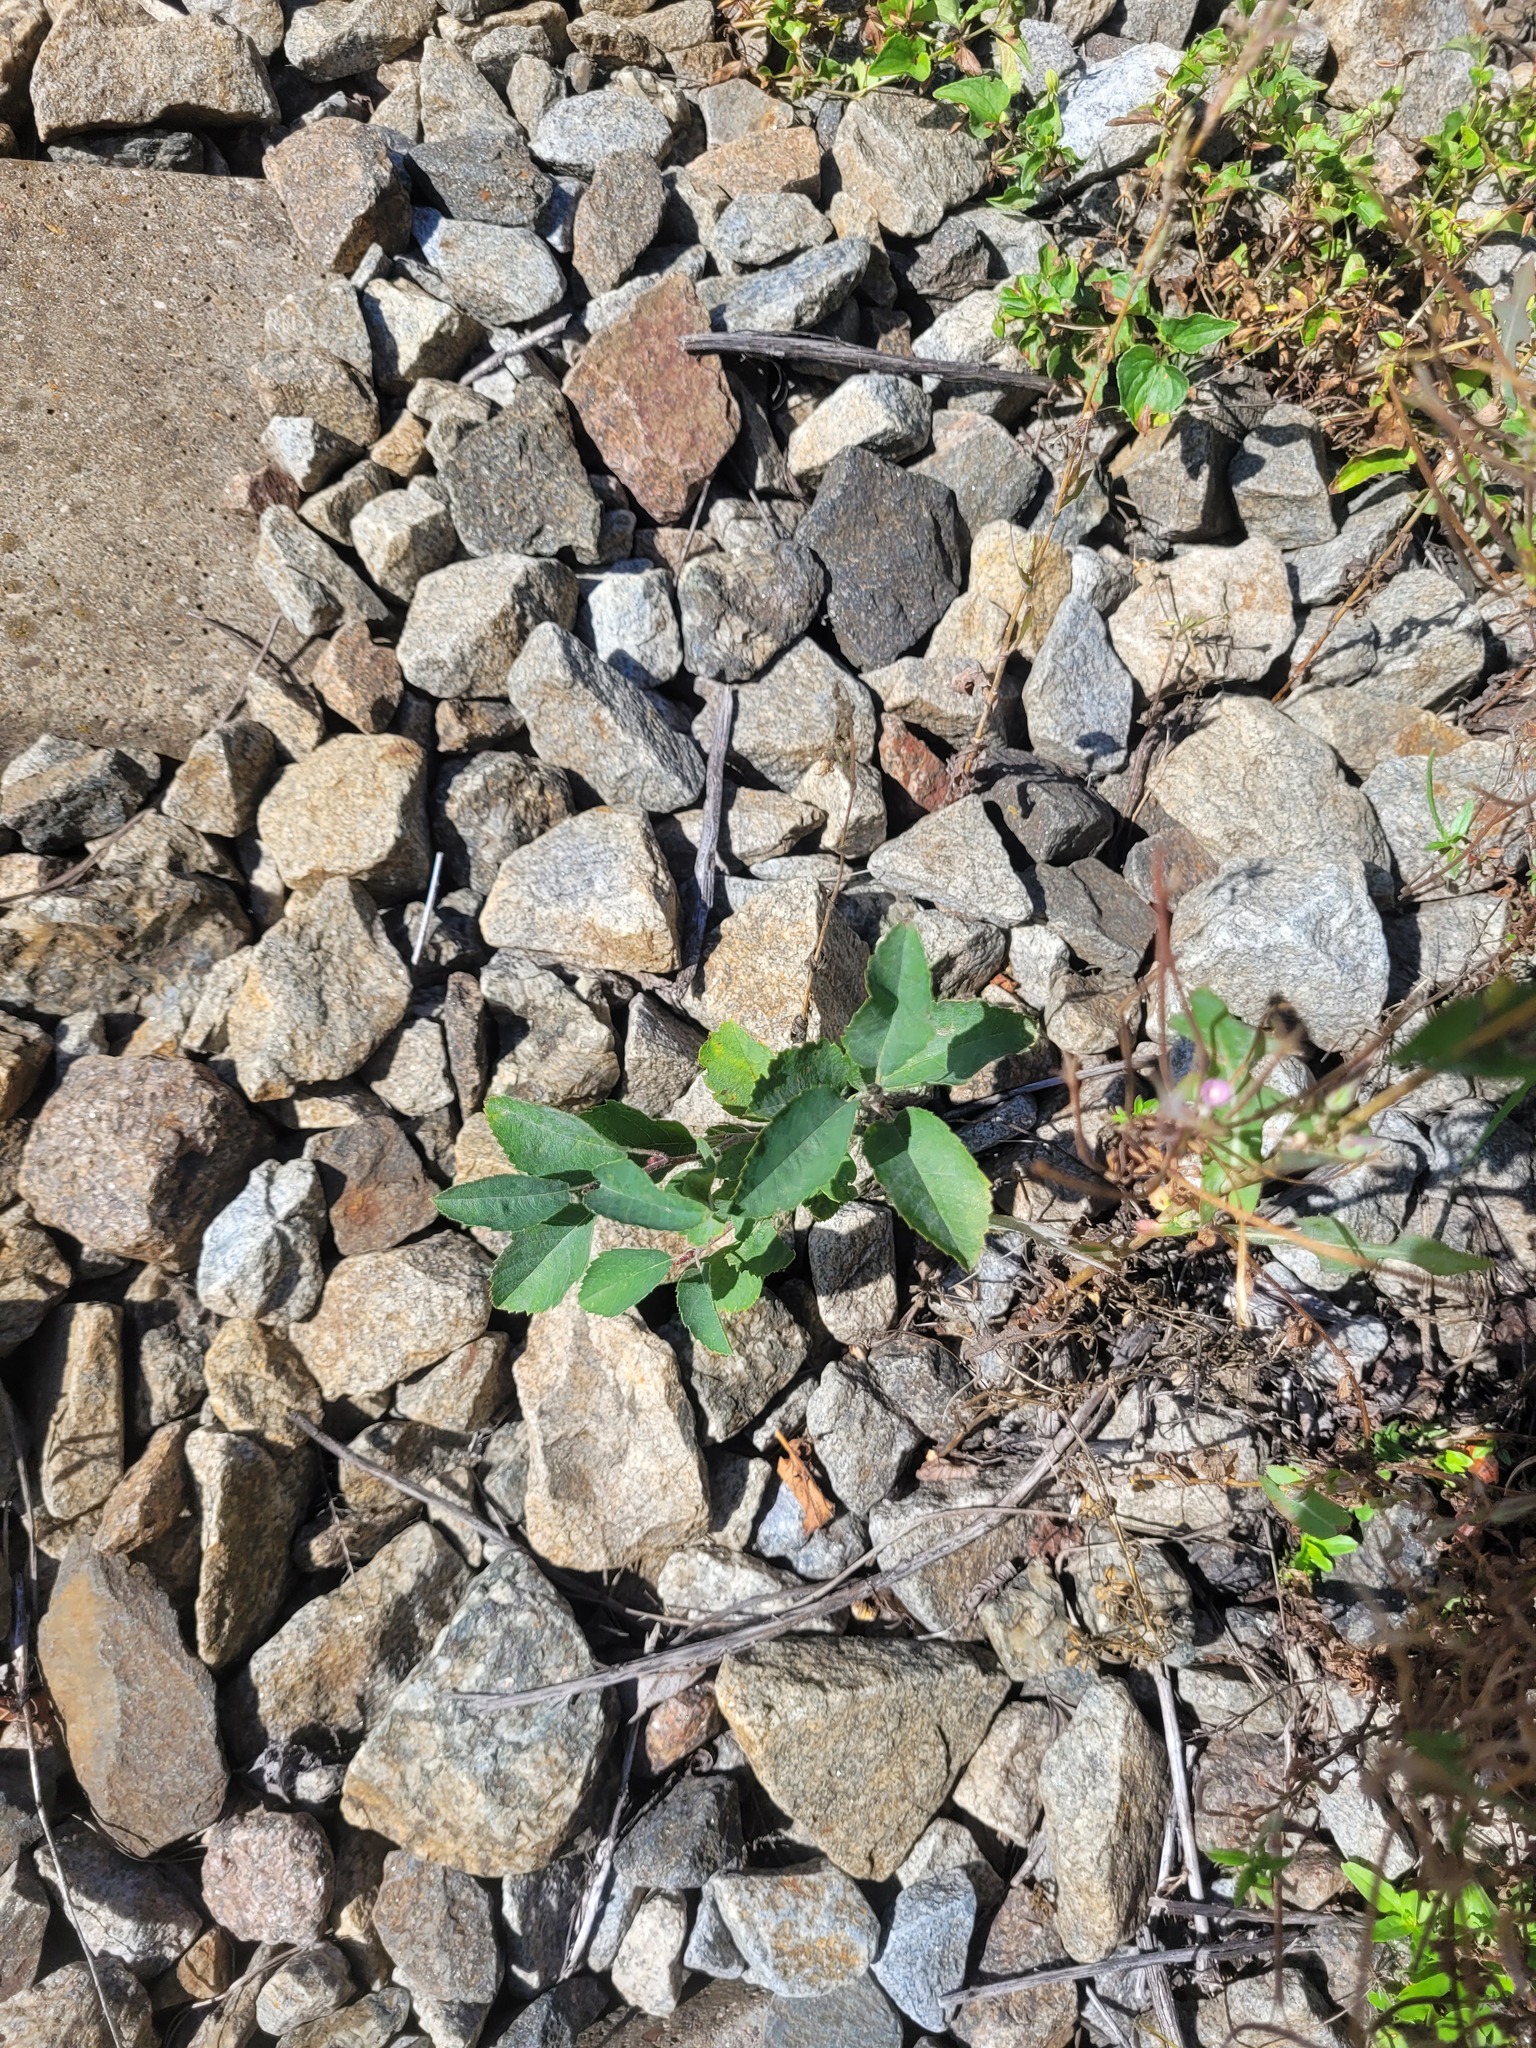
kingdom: Plantae
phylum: Tracheophyta
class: Magnoliopsida
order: Rosales
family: Rosaceae
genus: Amelanchier
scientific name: Amelanchier
